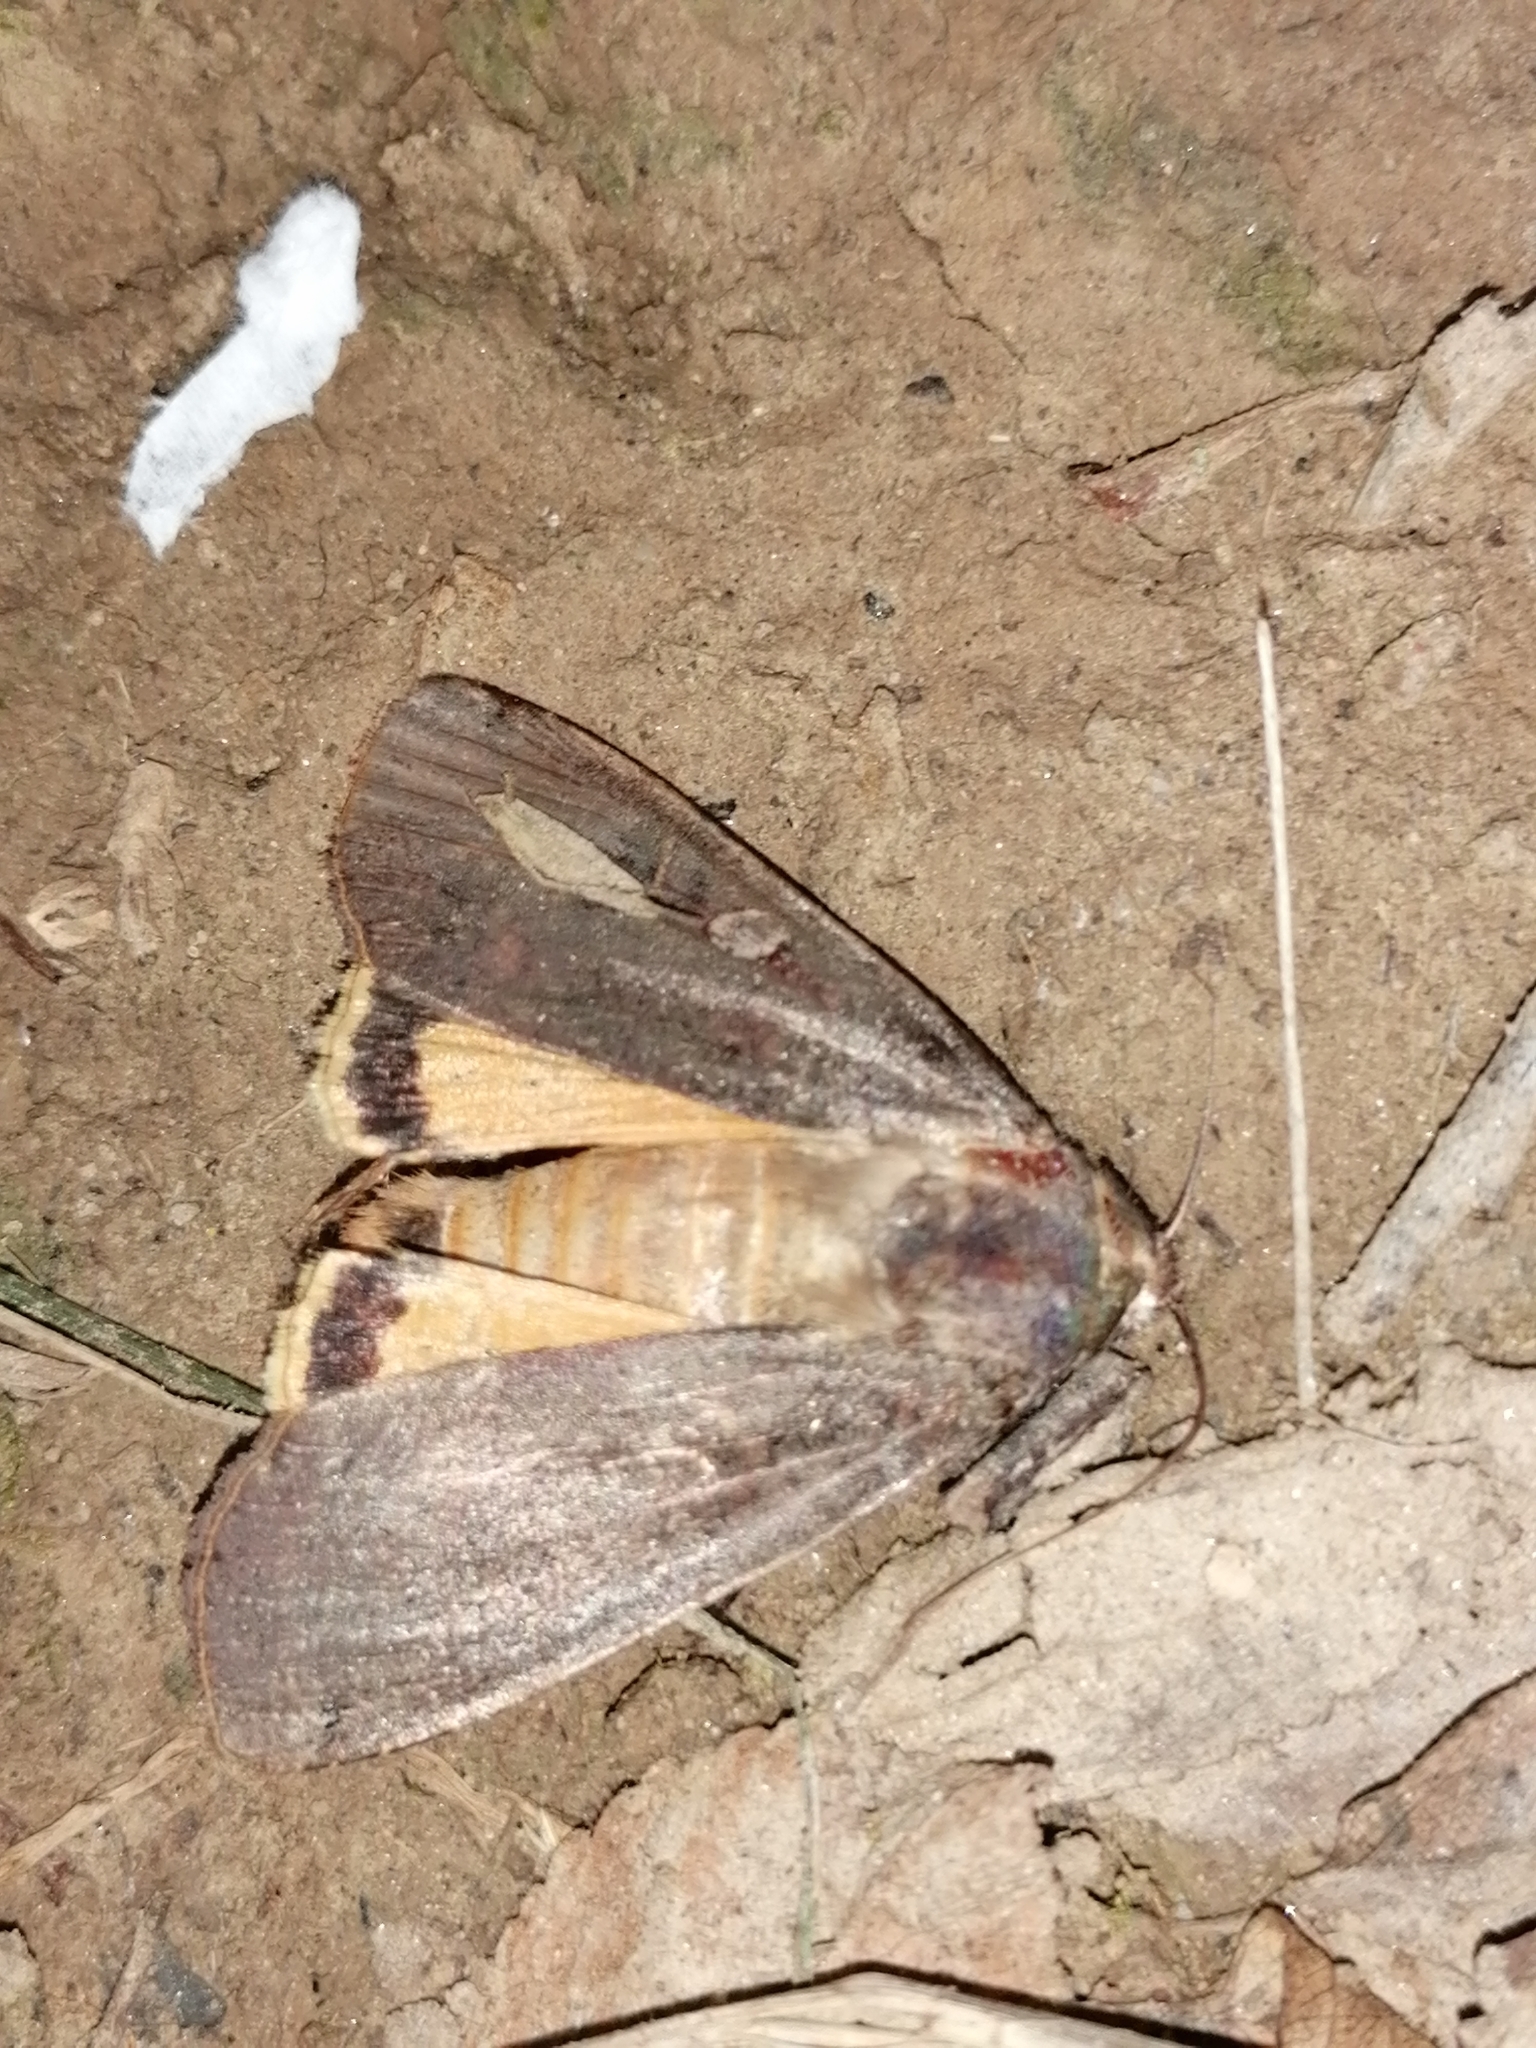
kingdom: Animalia
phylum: Arthropoda
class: Insecta
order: Lepidoptera
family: Noctuidae
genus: Noctua
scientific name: Noctua pronuba
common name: Large yellow underwing
